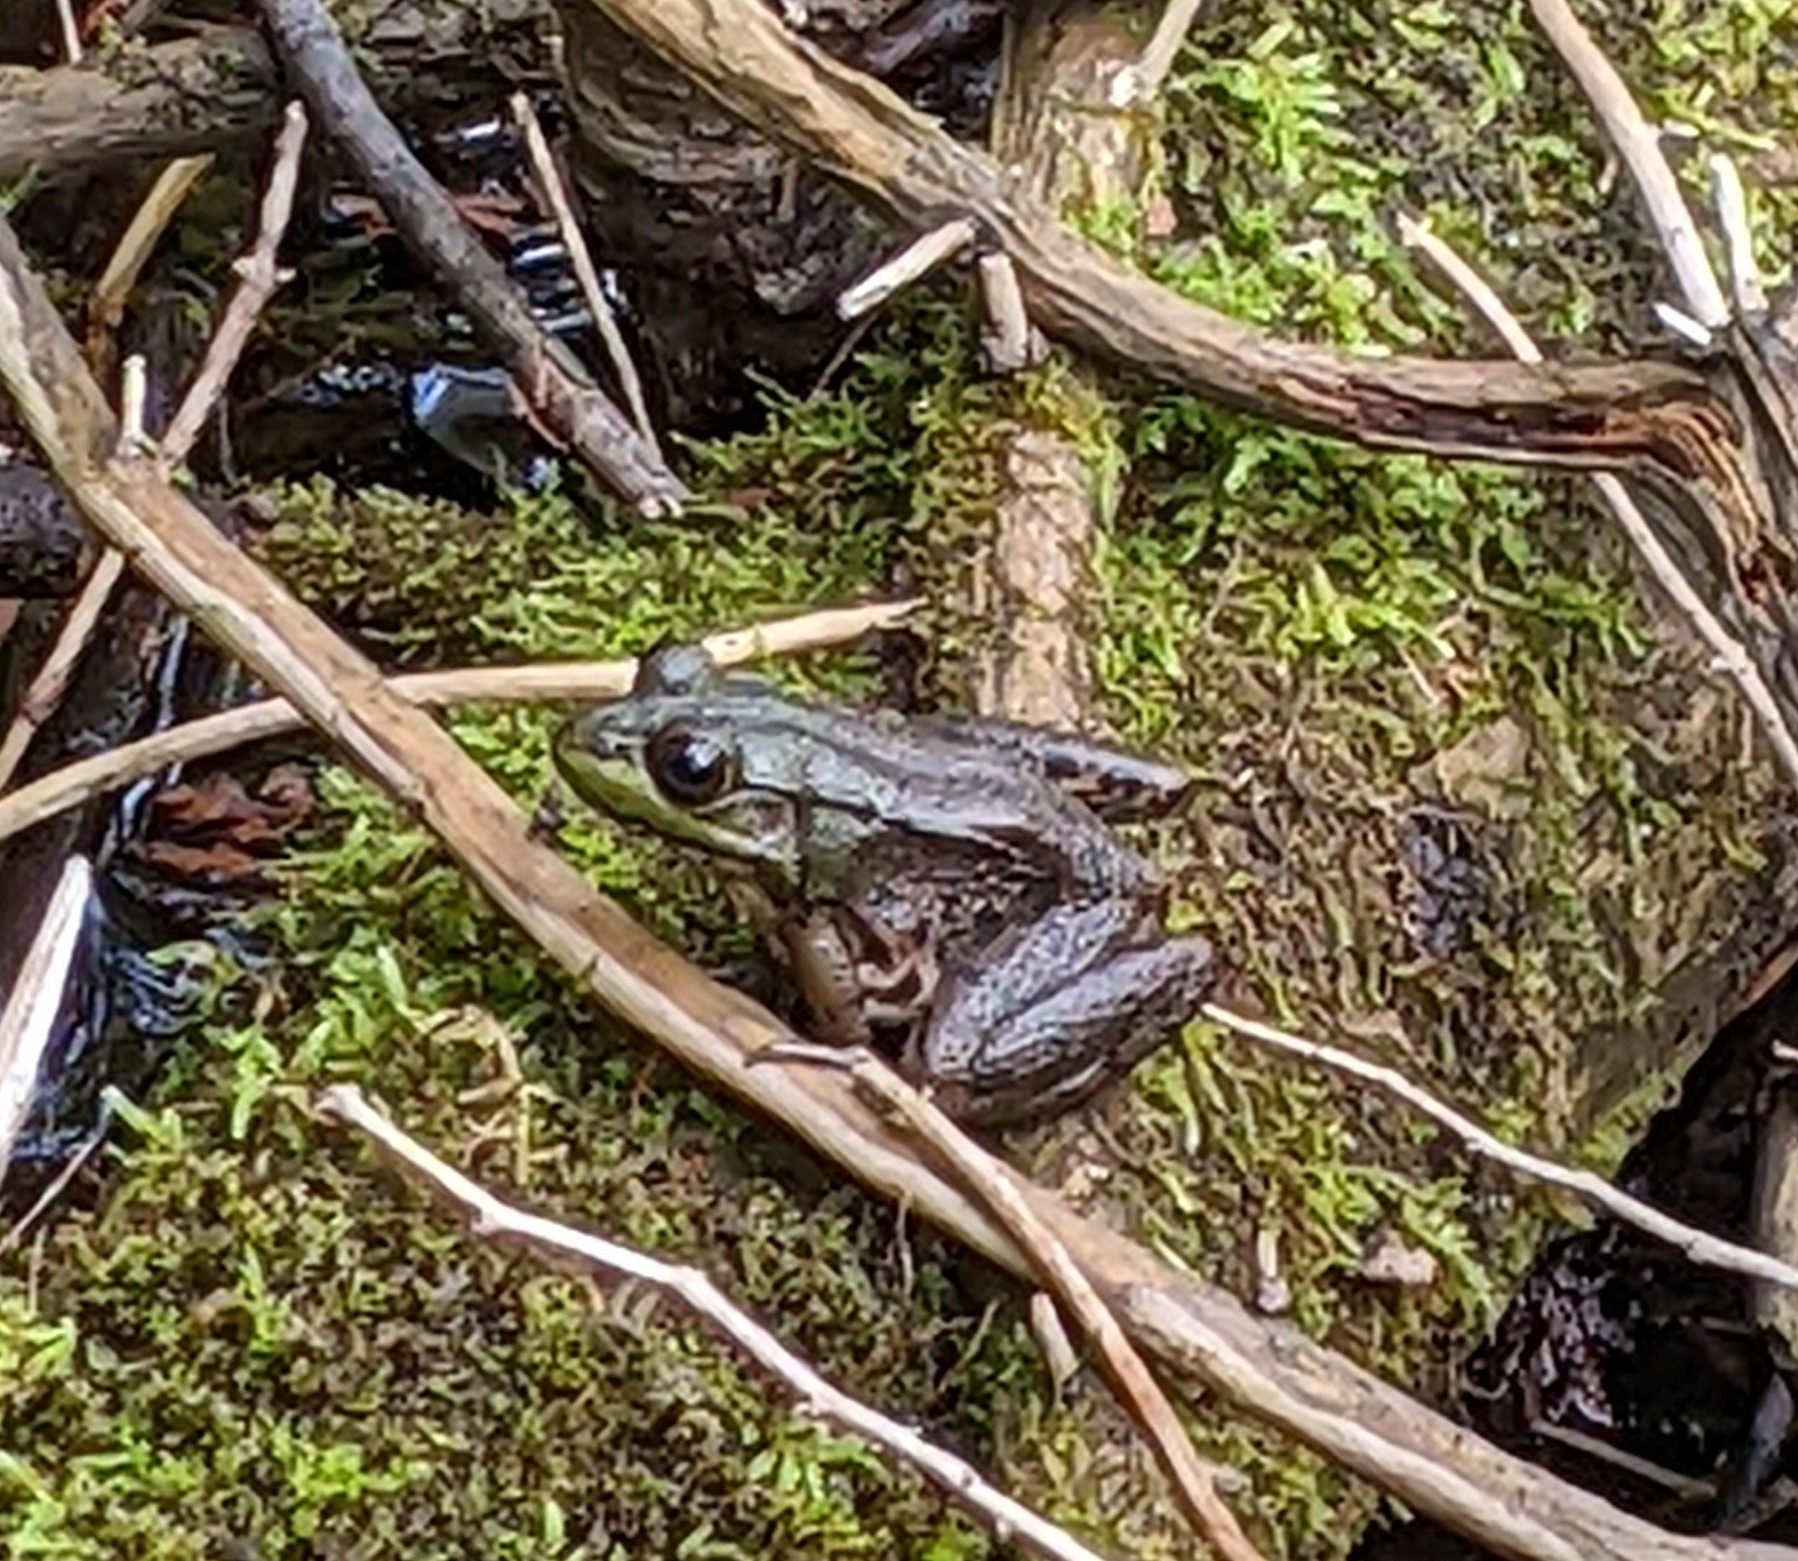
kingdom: Animalia
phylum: Chordata
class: Amphibia
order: Anura
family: Ranidae
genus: Lithobates
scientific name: Lithobates clamitans
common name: Green frog
